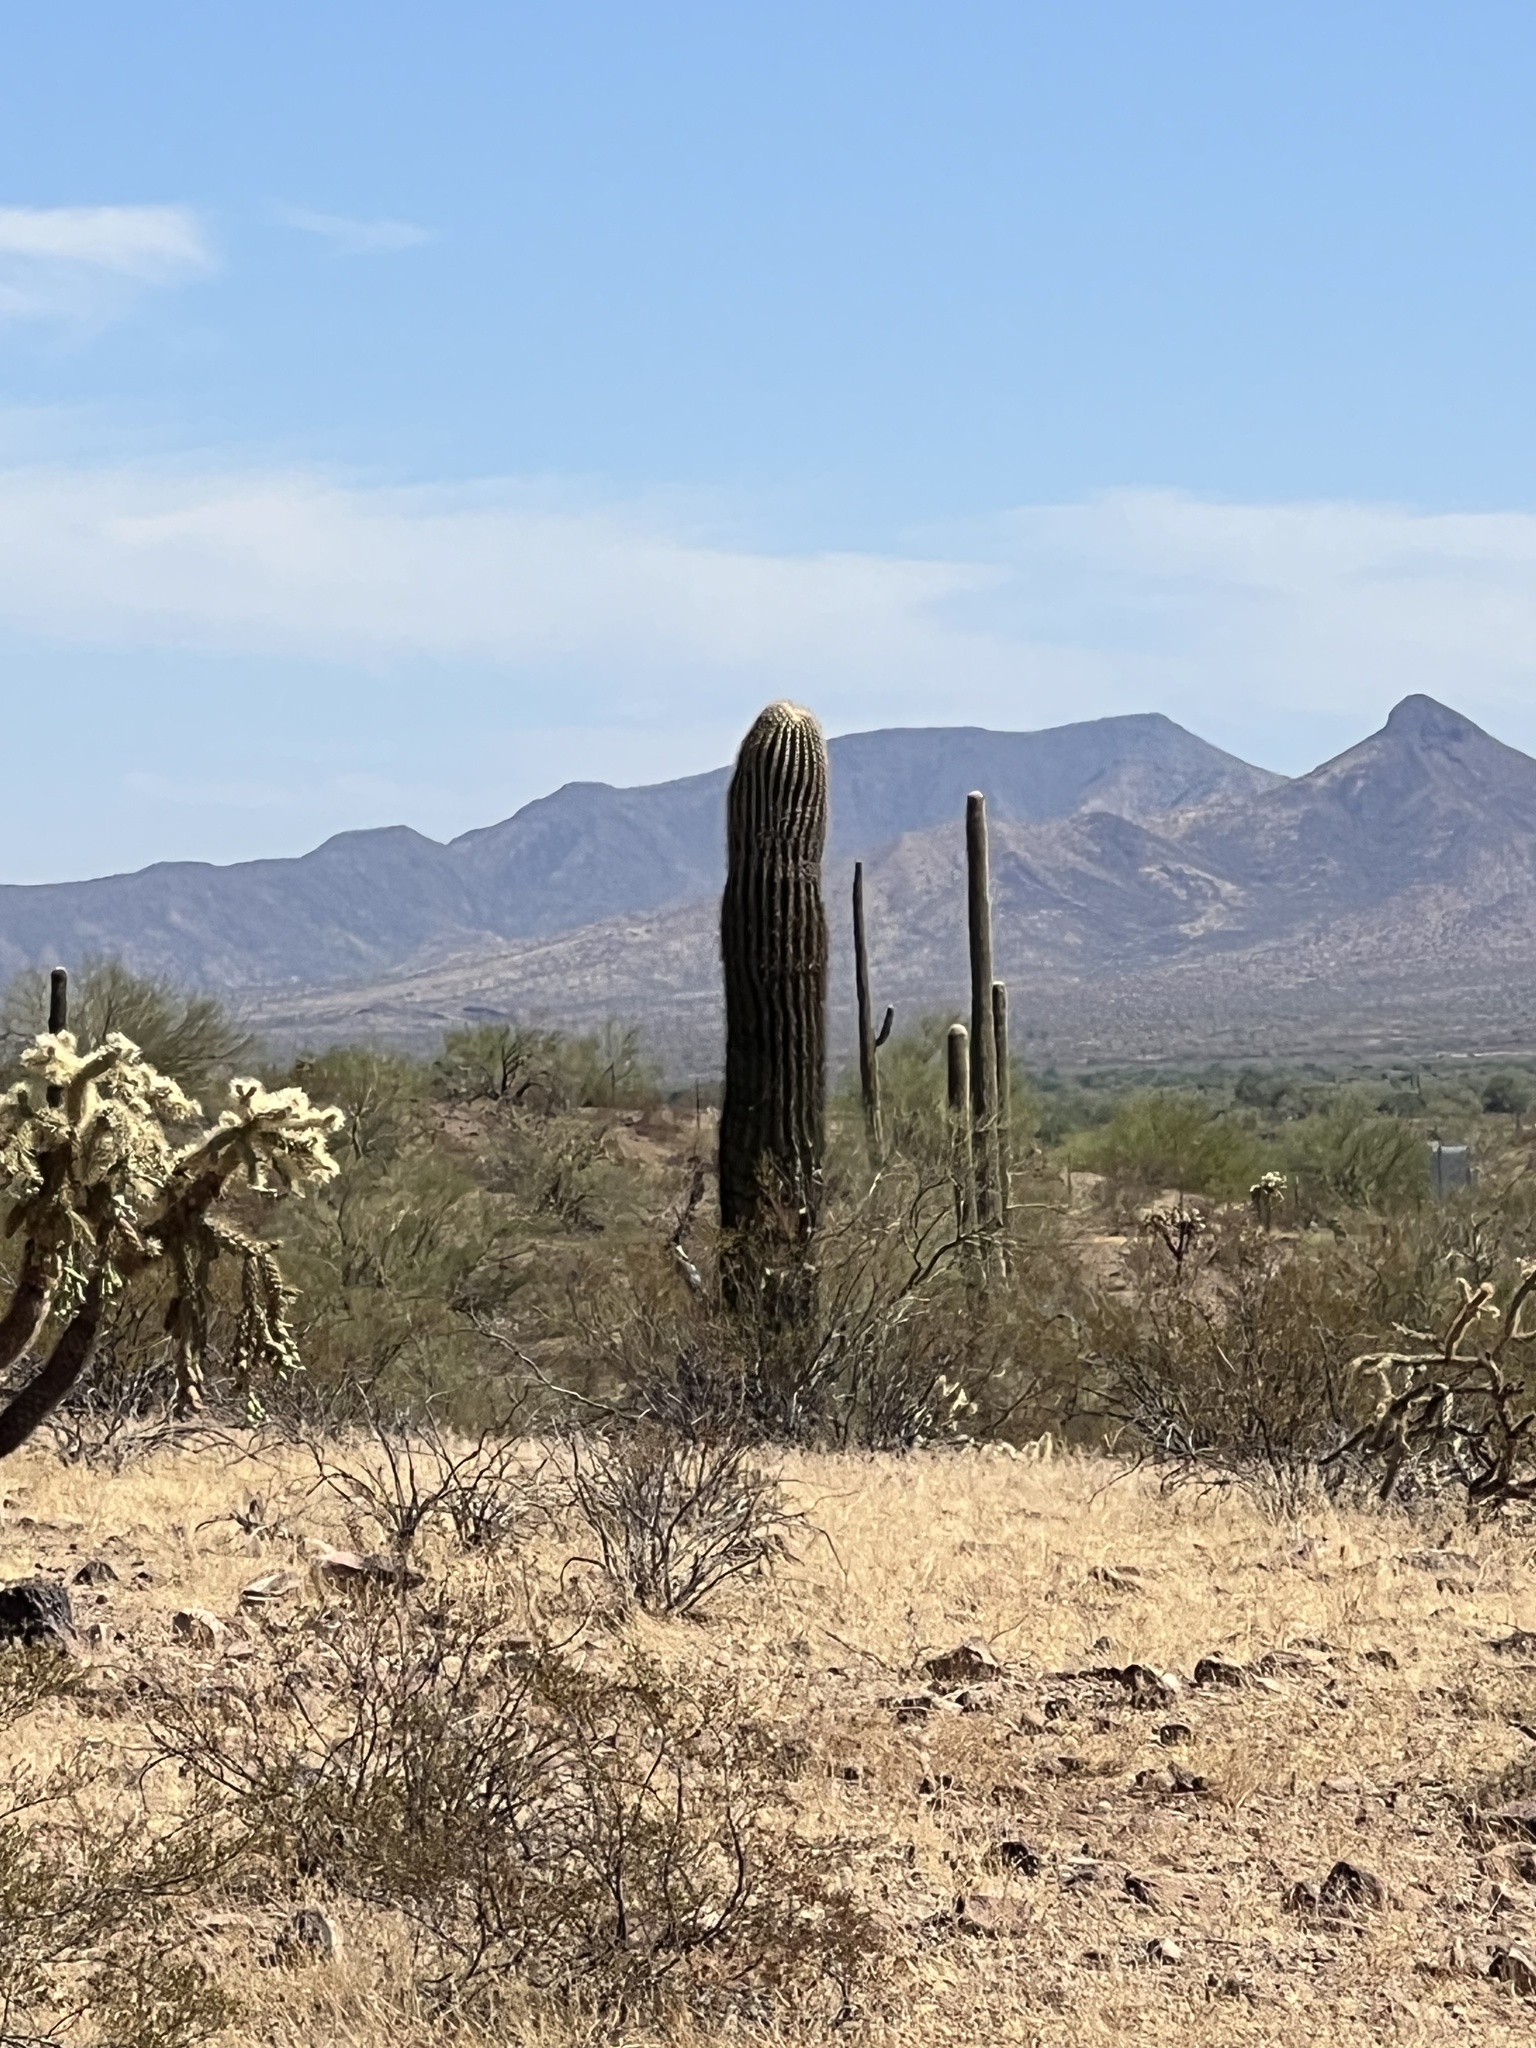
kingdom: Plantae
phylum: Tracheophyta
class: Magnoliopsida
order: Caryophyllales
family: Cactaceae
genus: Carnegiea
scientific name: Carnegiea gigantea
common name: Saguaro
